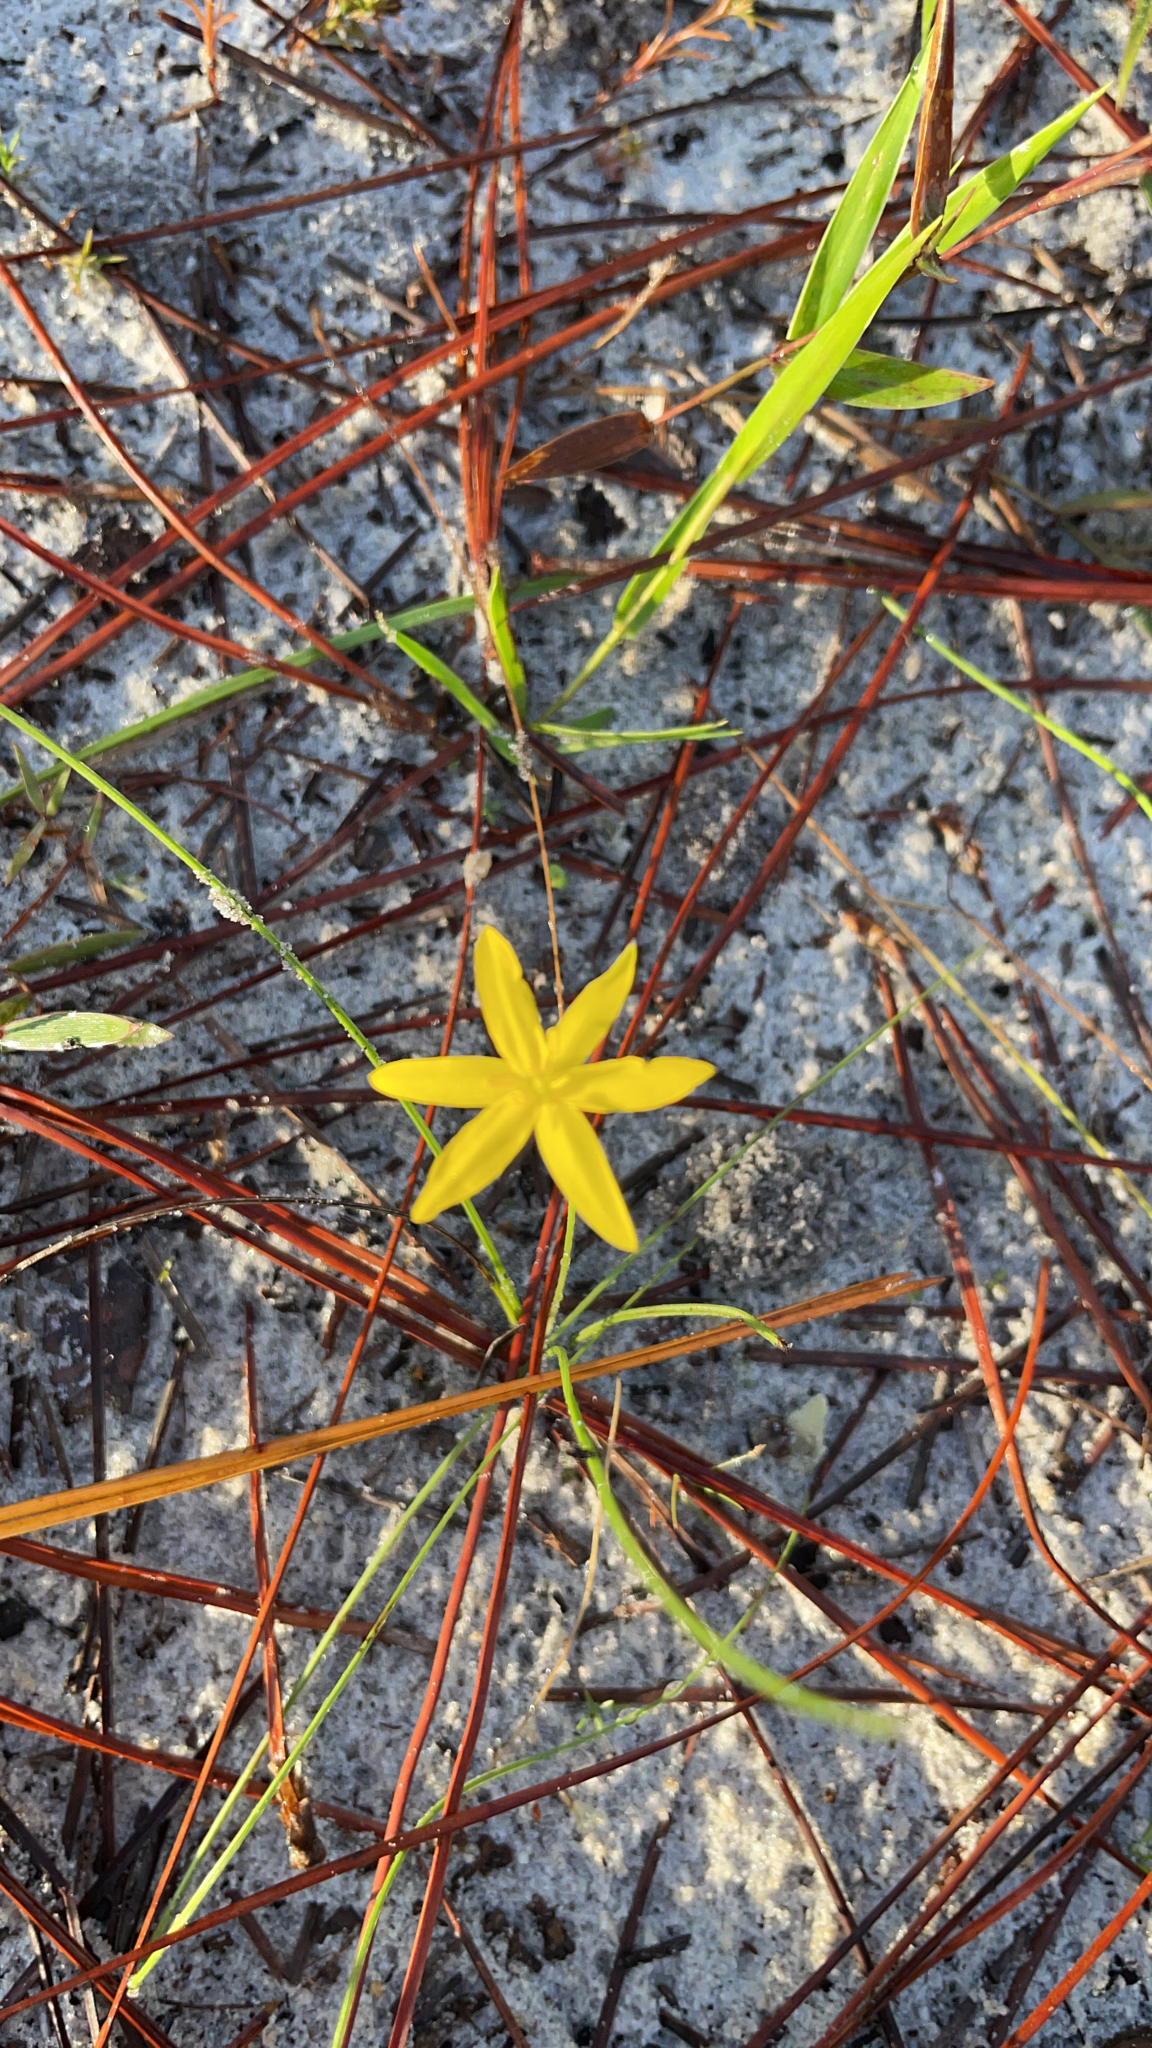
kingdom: Plantae
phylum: Tracheophyta
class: Liliopsida
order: Asparagales
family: Hypoxidaceae
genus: Hypoxis
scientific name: Hypoxis juncea
